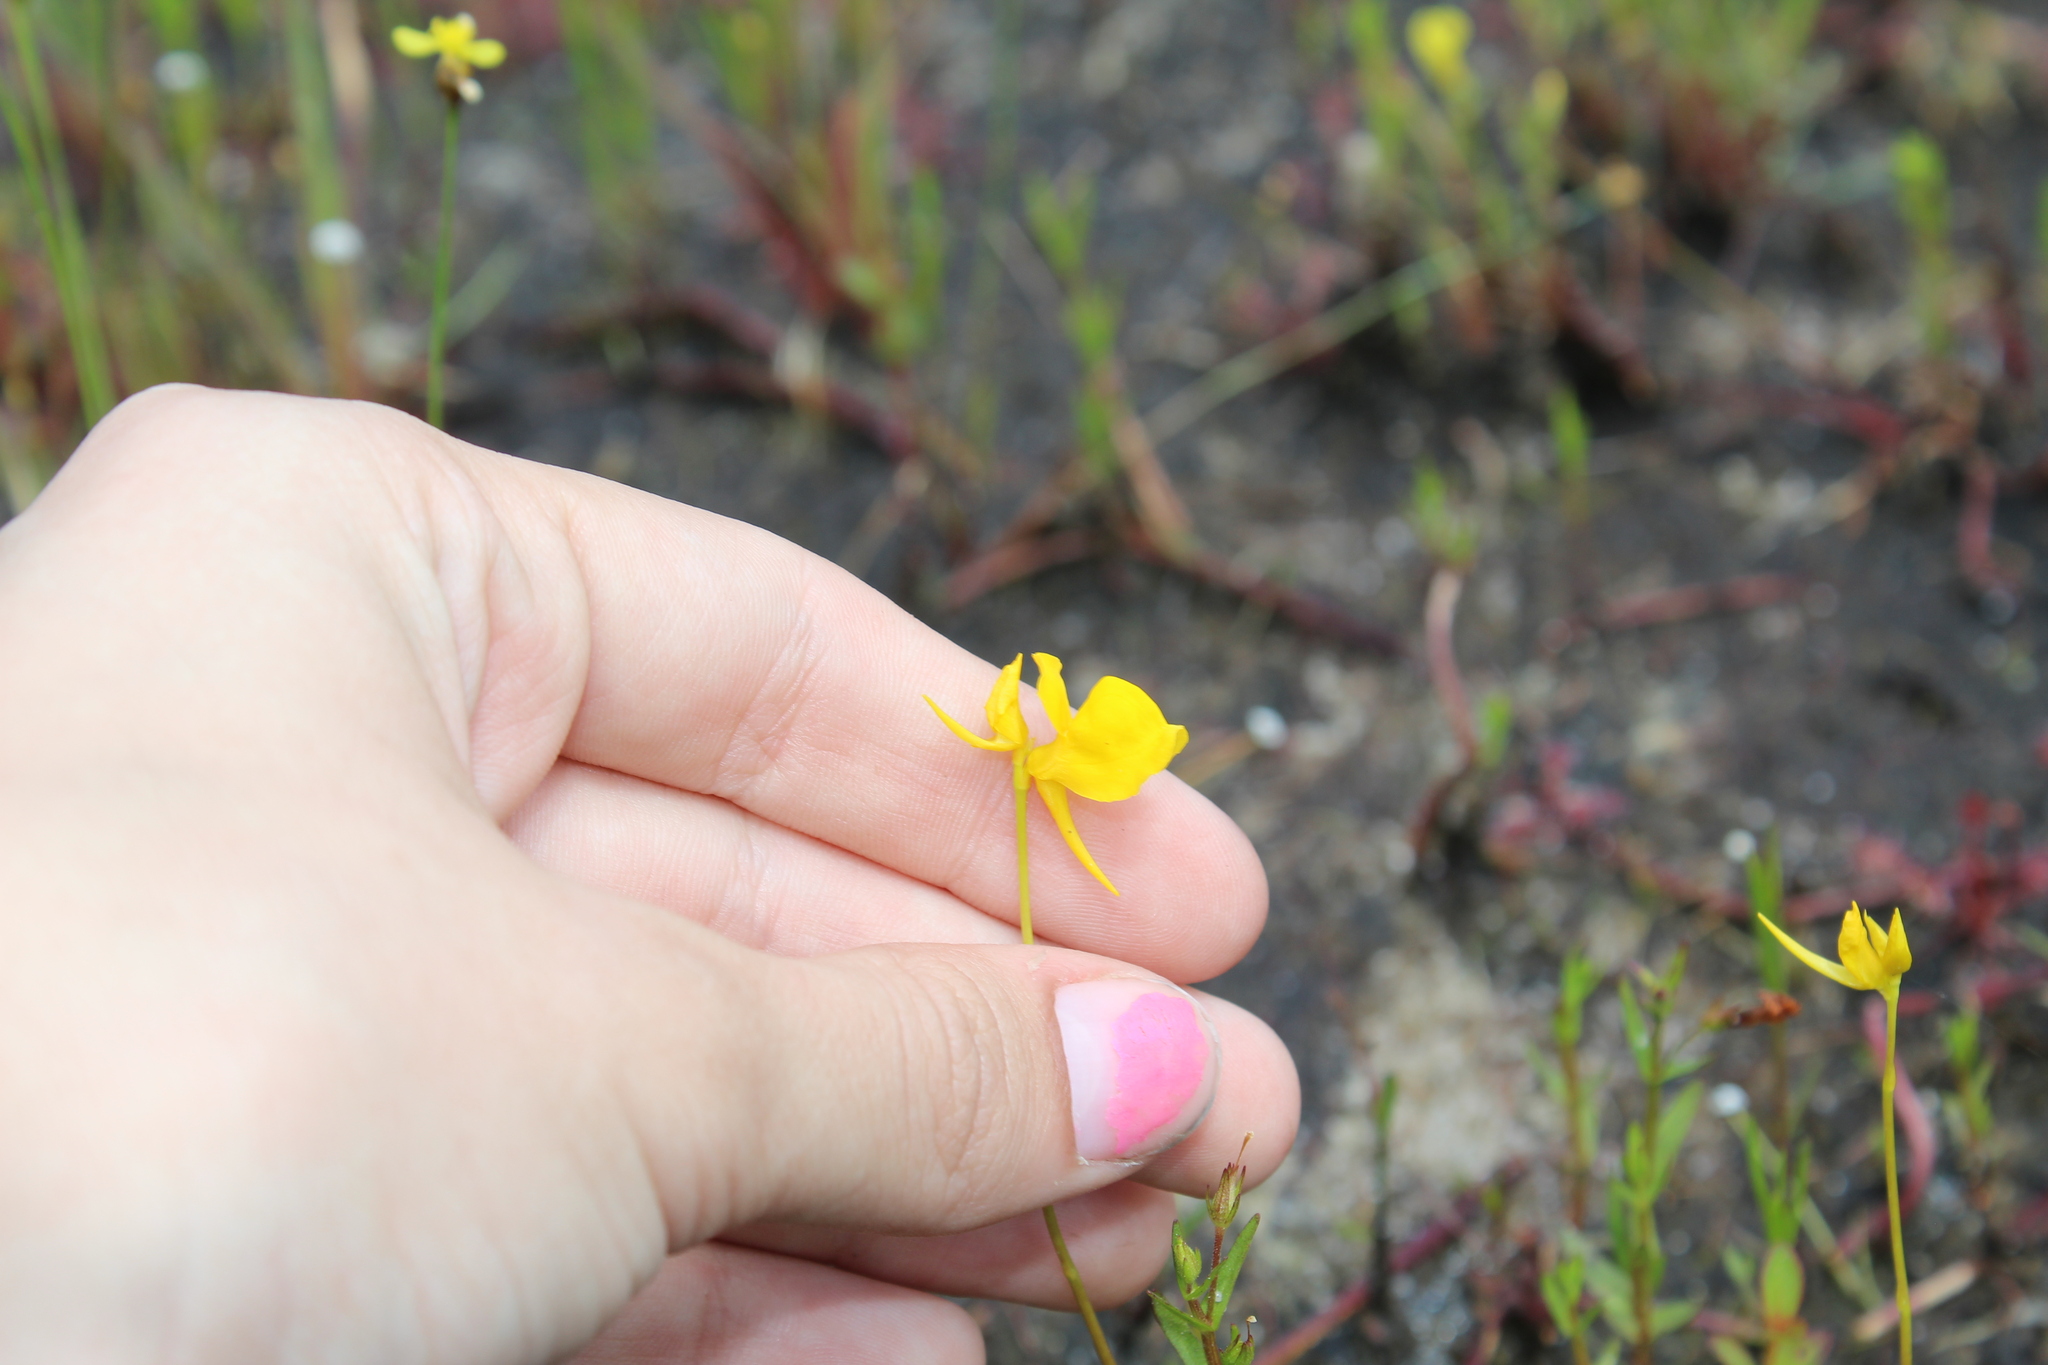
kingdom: Plantae
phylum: Tracheophyta
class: Magnoliopsida
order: Lamiales
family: Lentibulariaceae
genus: Utricularia
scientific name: Utricularia cornuta
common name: Horned bladderwort
